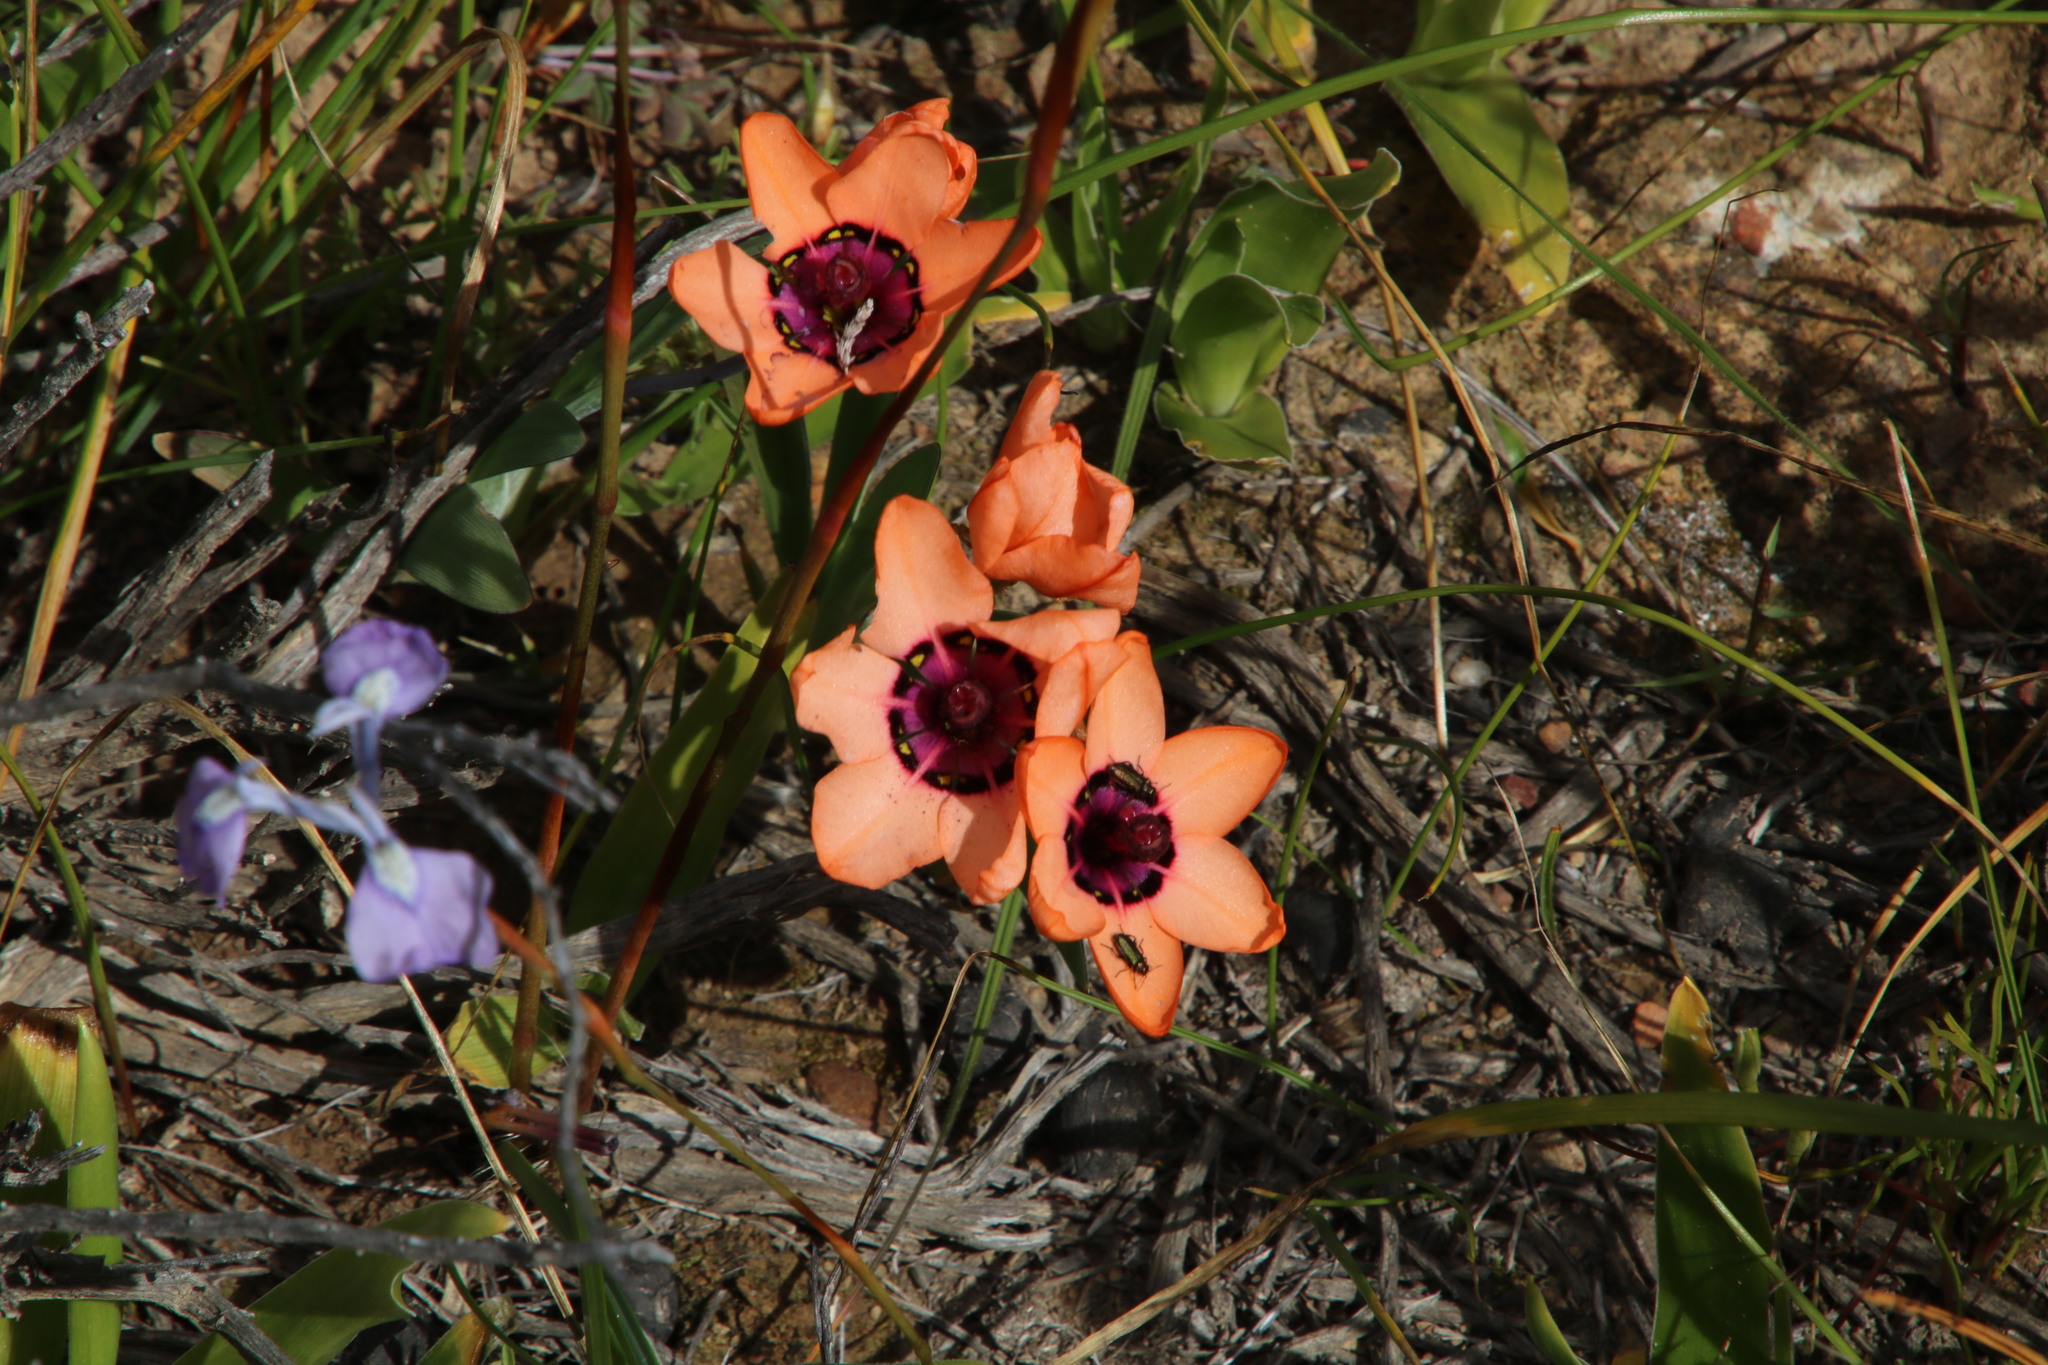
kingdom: Plantae
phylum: Tracheophyta
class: Liliopsida
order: Asparagales
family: Iridaceae
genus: Sparaxis
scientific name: Sparaxis elegans
